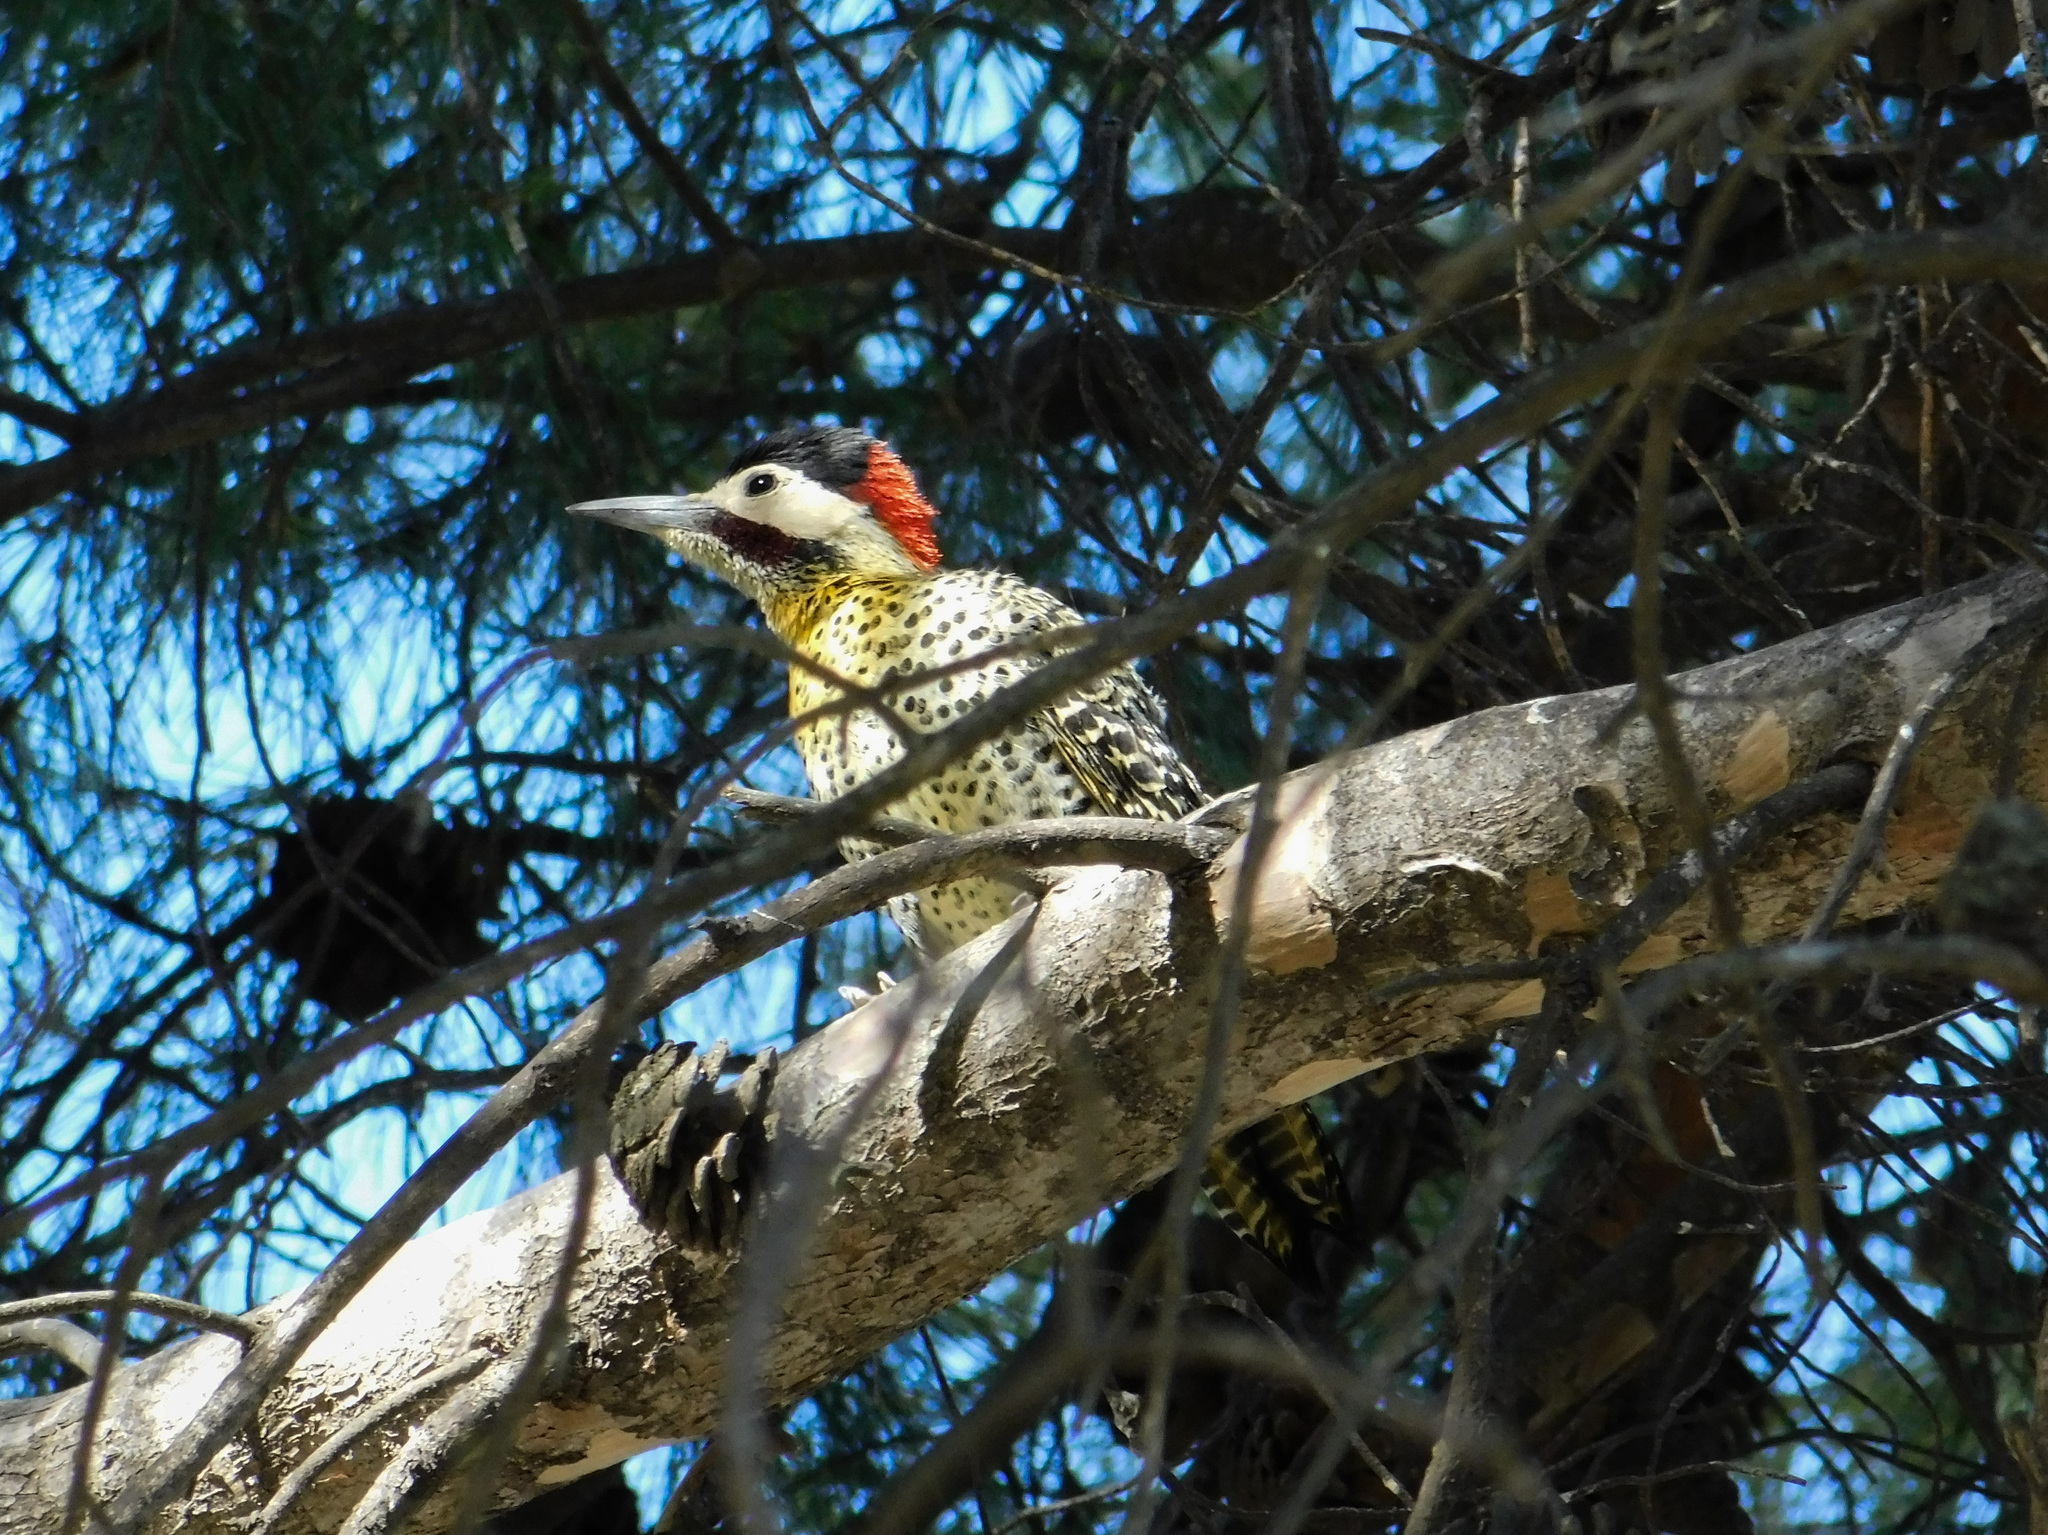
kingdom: Animalia
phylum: Chordata
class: Aves
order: Piciformes
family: Picidae
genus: Colaptes
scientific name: Colaptes melanochloros
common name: Green-barred woodpecker
